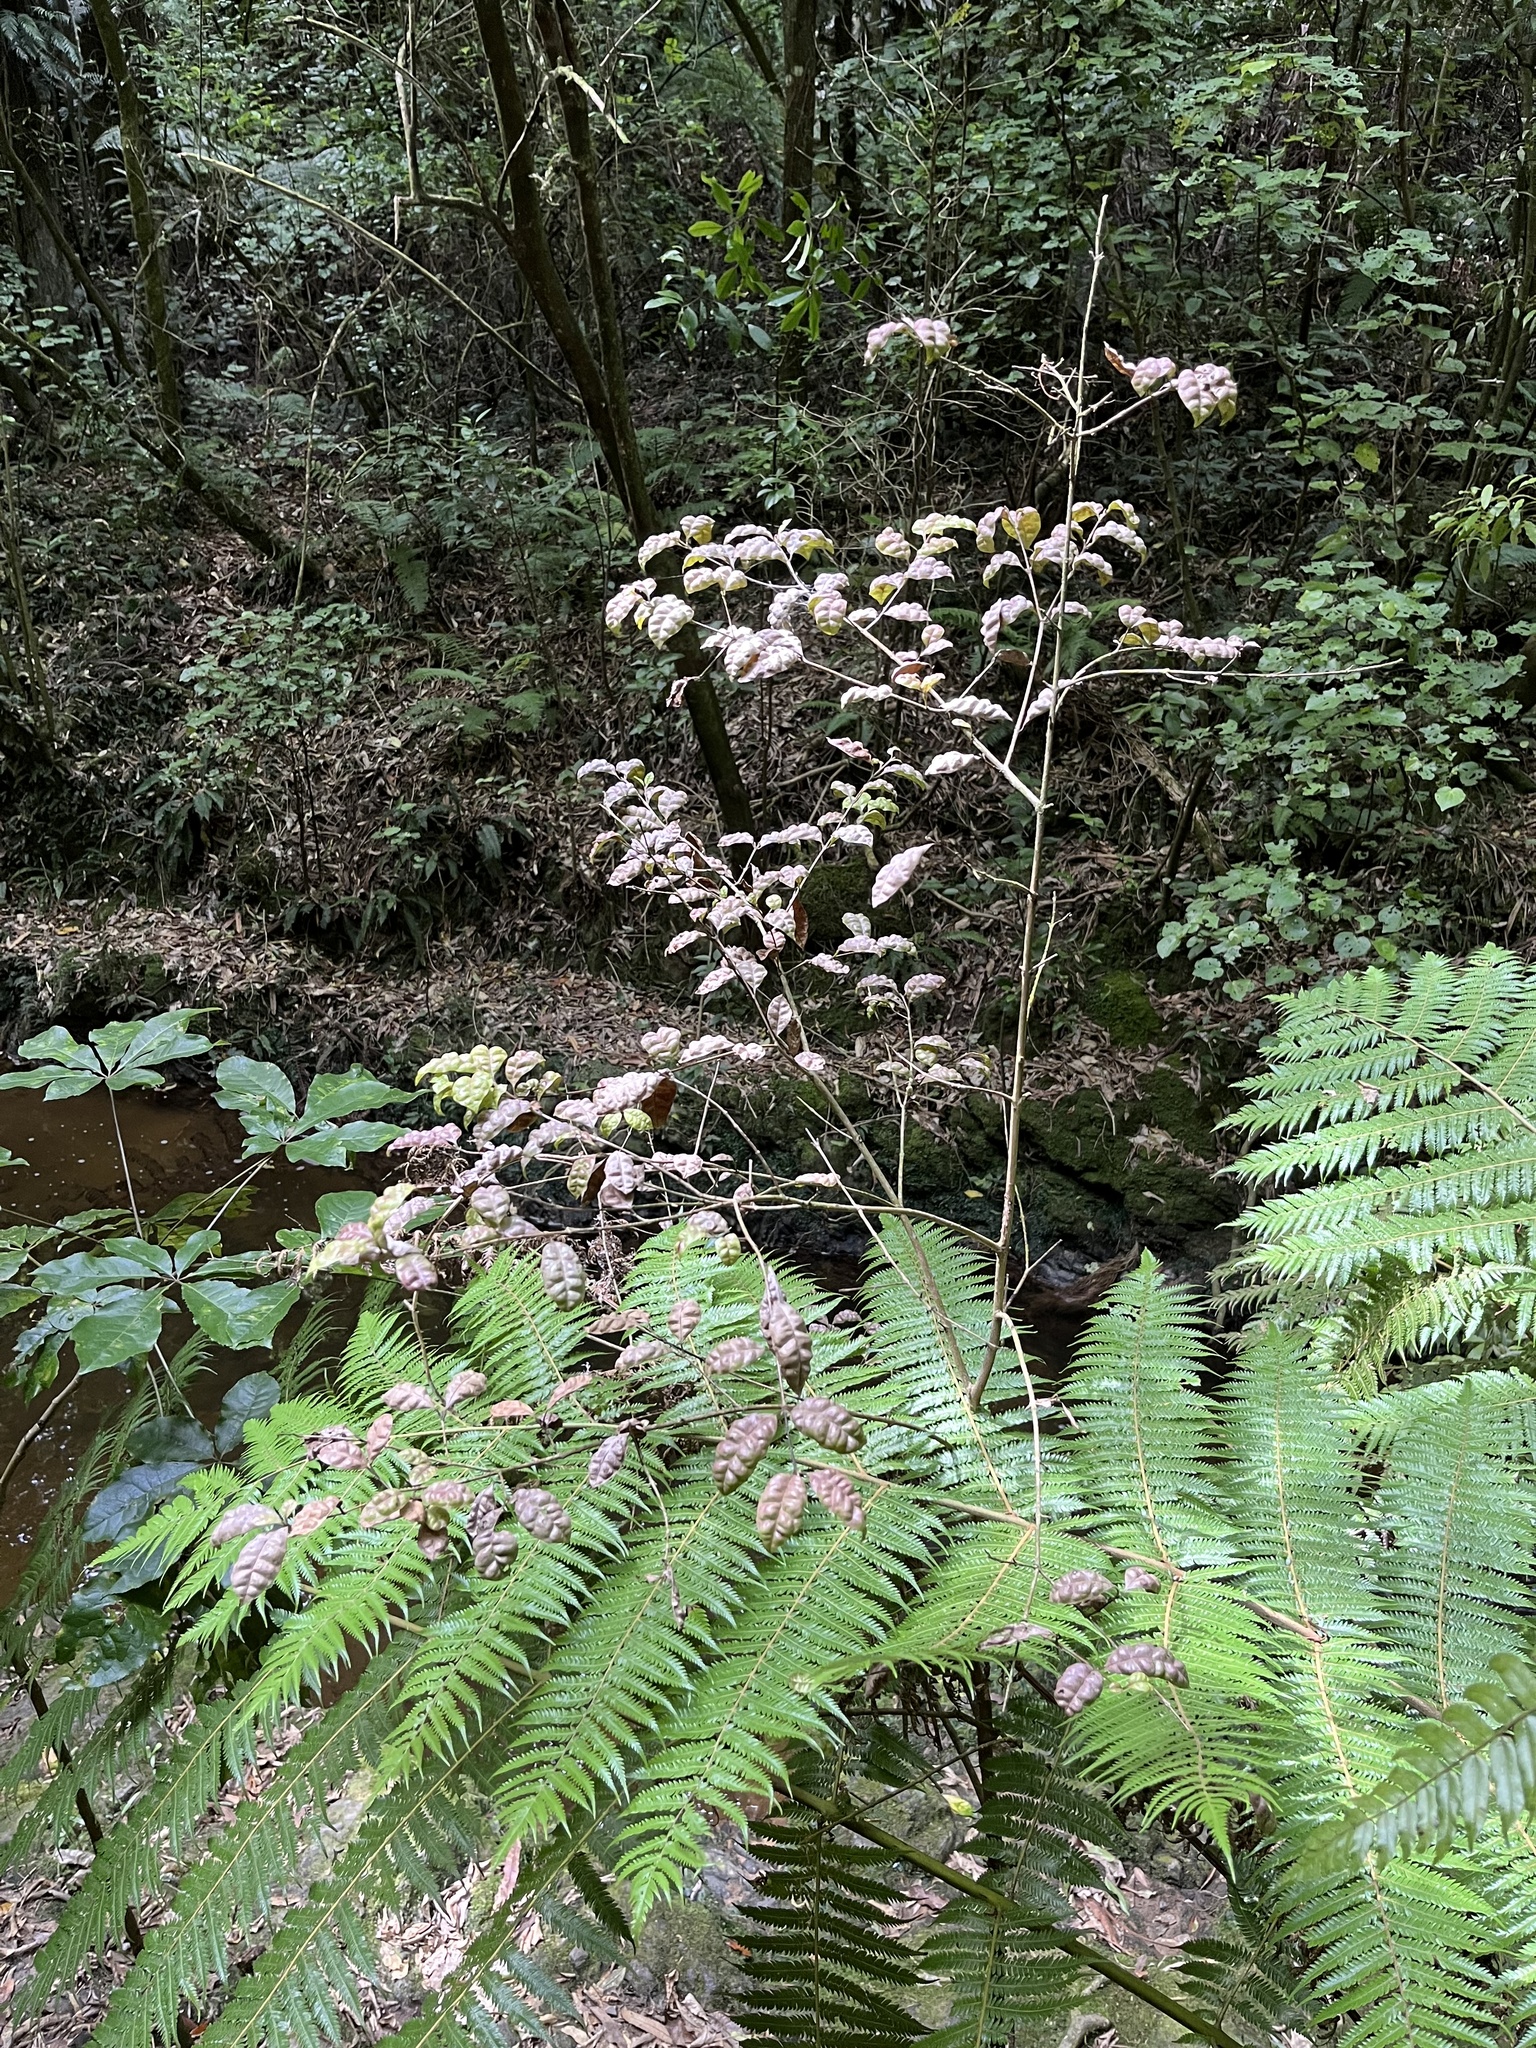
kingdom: Plantae
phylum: Tracheophyta
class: Magnoliopsida
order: Myrtales
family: Myrtaceae
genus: Lophomyrtus
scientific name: Lophomyrtus bullata
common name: Rama rama
